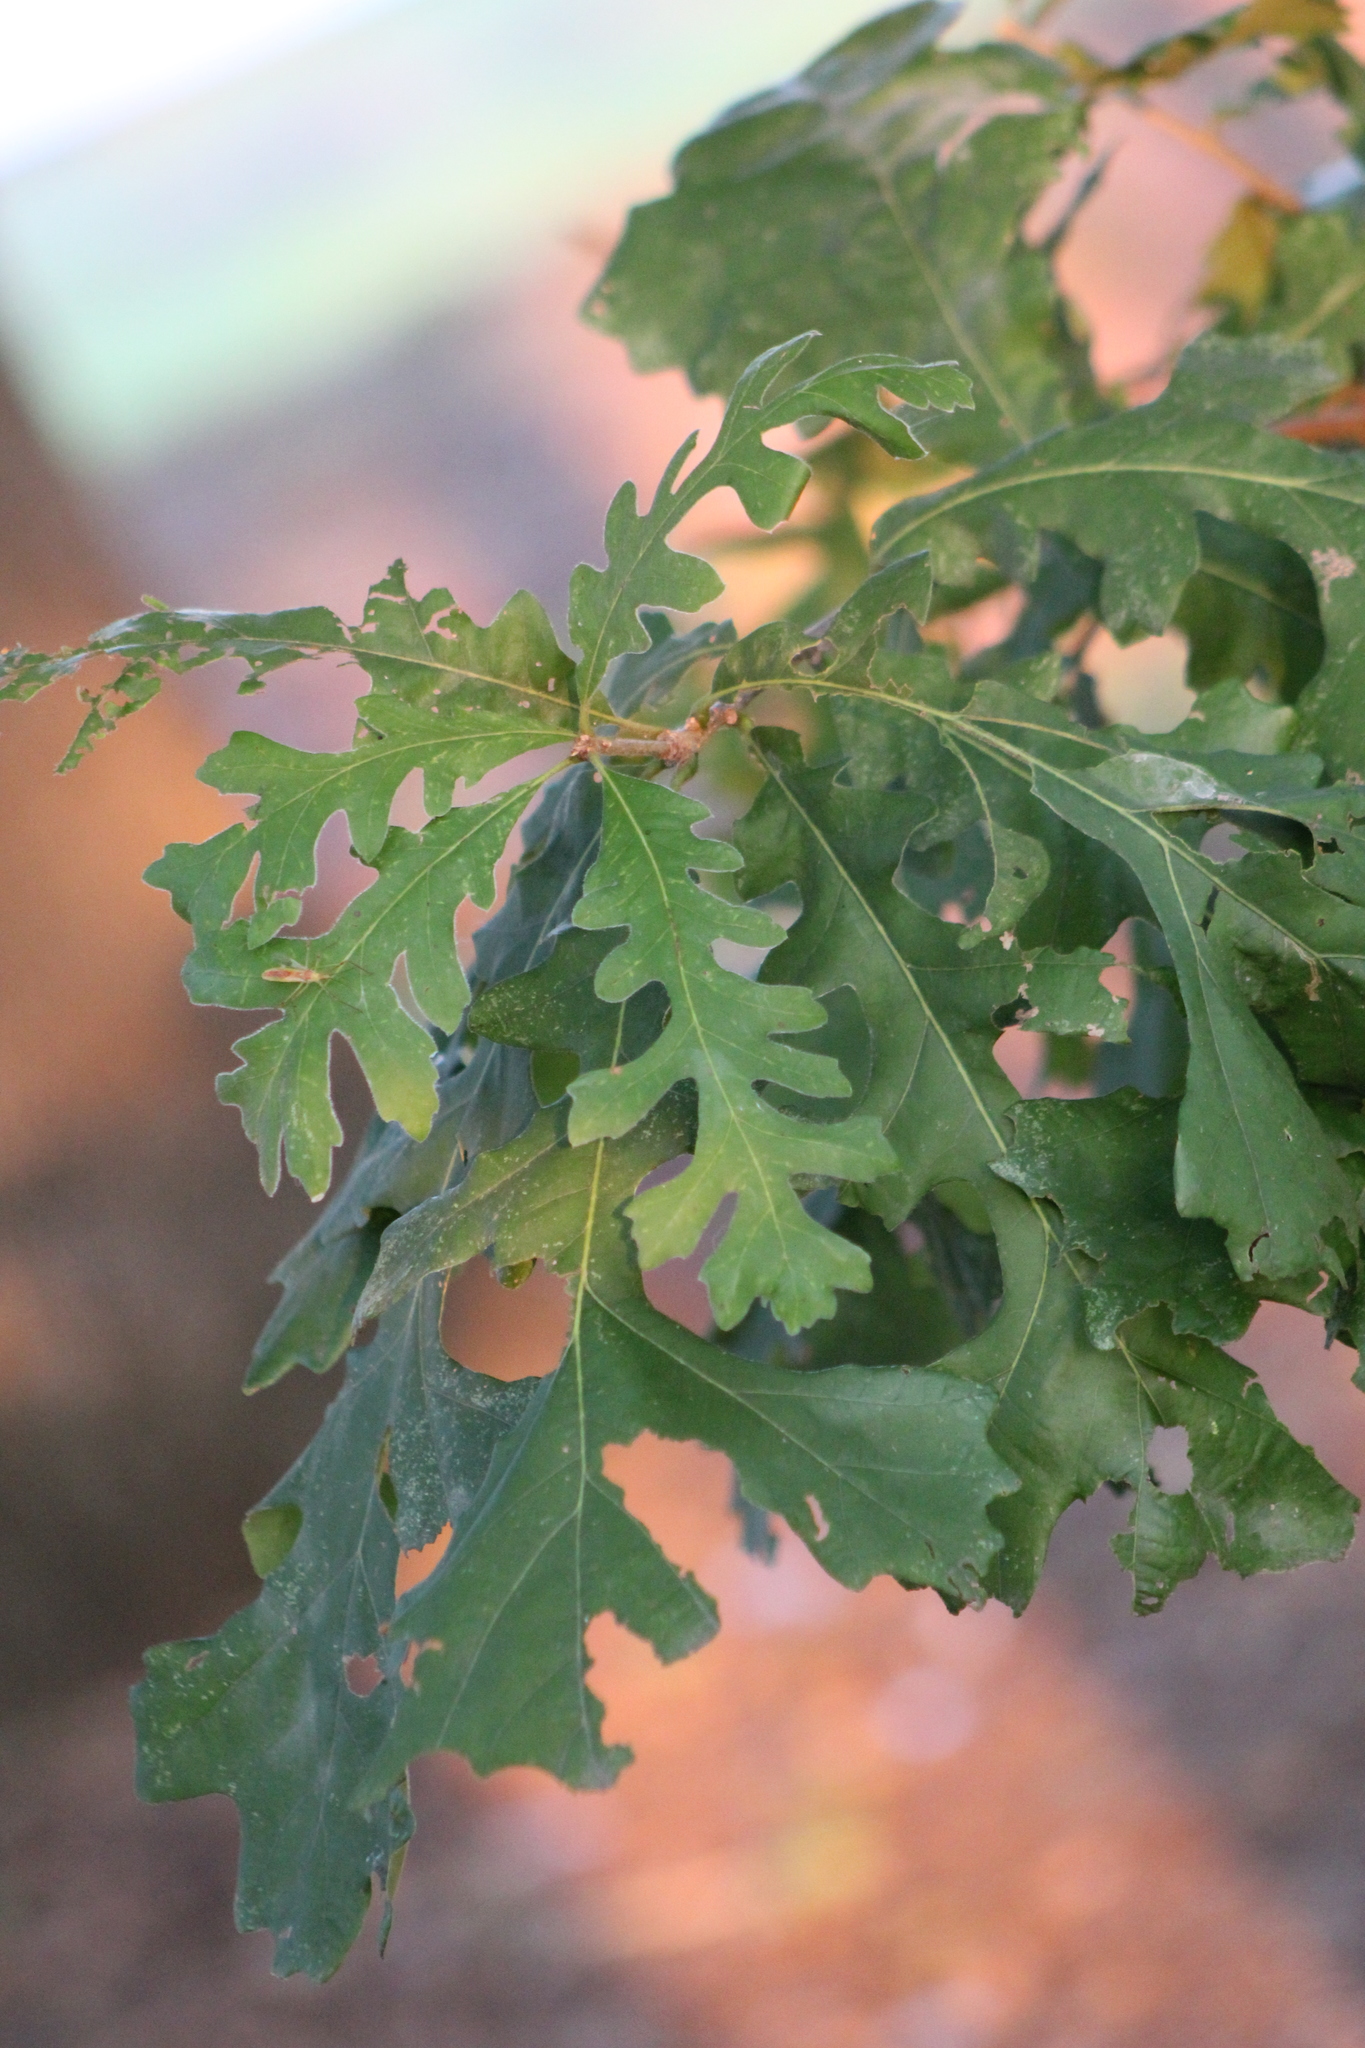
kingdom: Plantae
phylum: Tracheophyta
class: Magnoliopsida
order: Fagales
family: Fagaceae
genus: Quercus
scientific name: Quercus macrocarpa
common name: Bur oak
